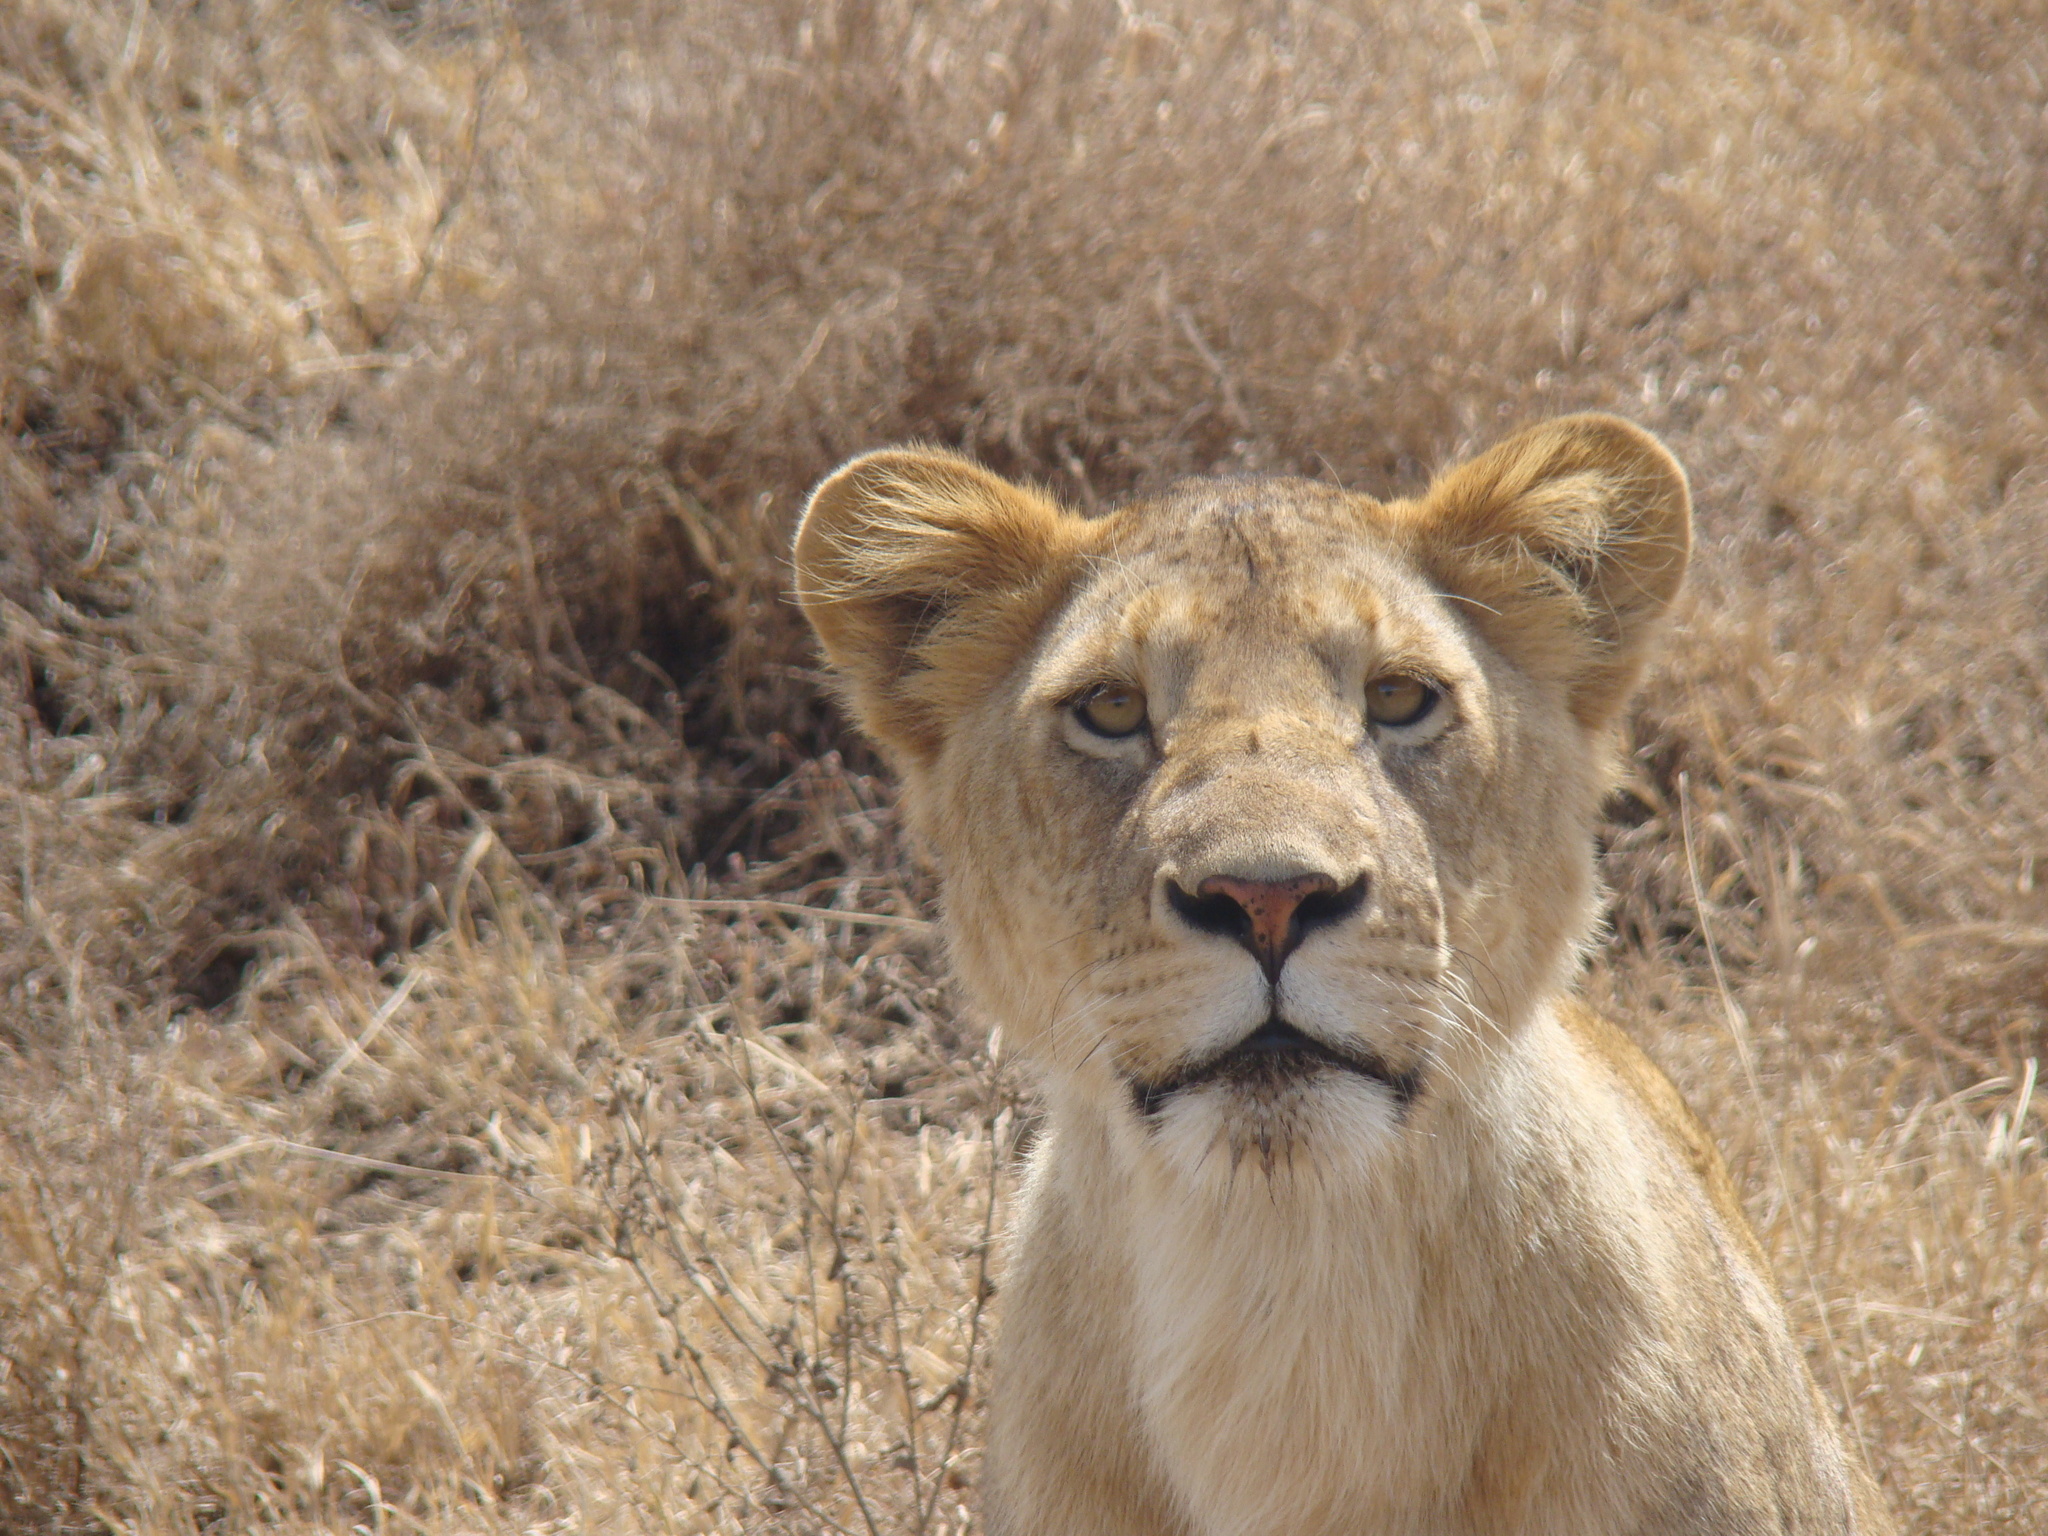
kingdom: Animalia
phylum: Chordata
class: Mammalia
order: Carnivora
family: Felidae
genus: Panthera
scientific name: Panthera leo
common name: Lion
